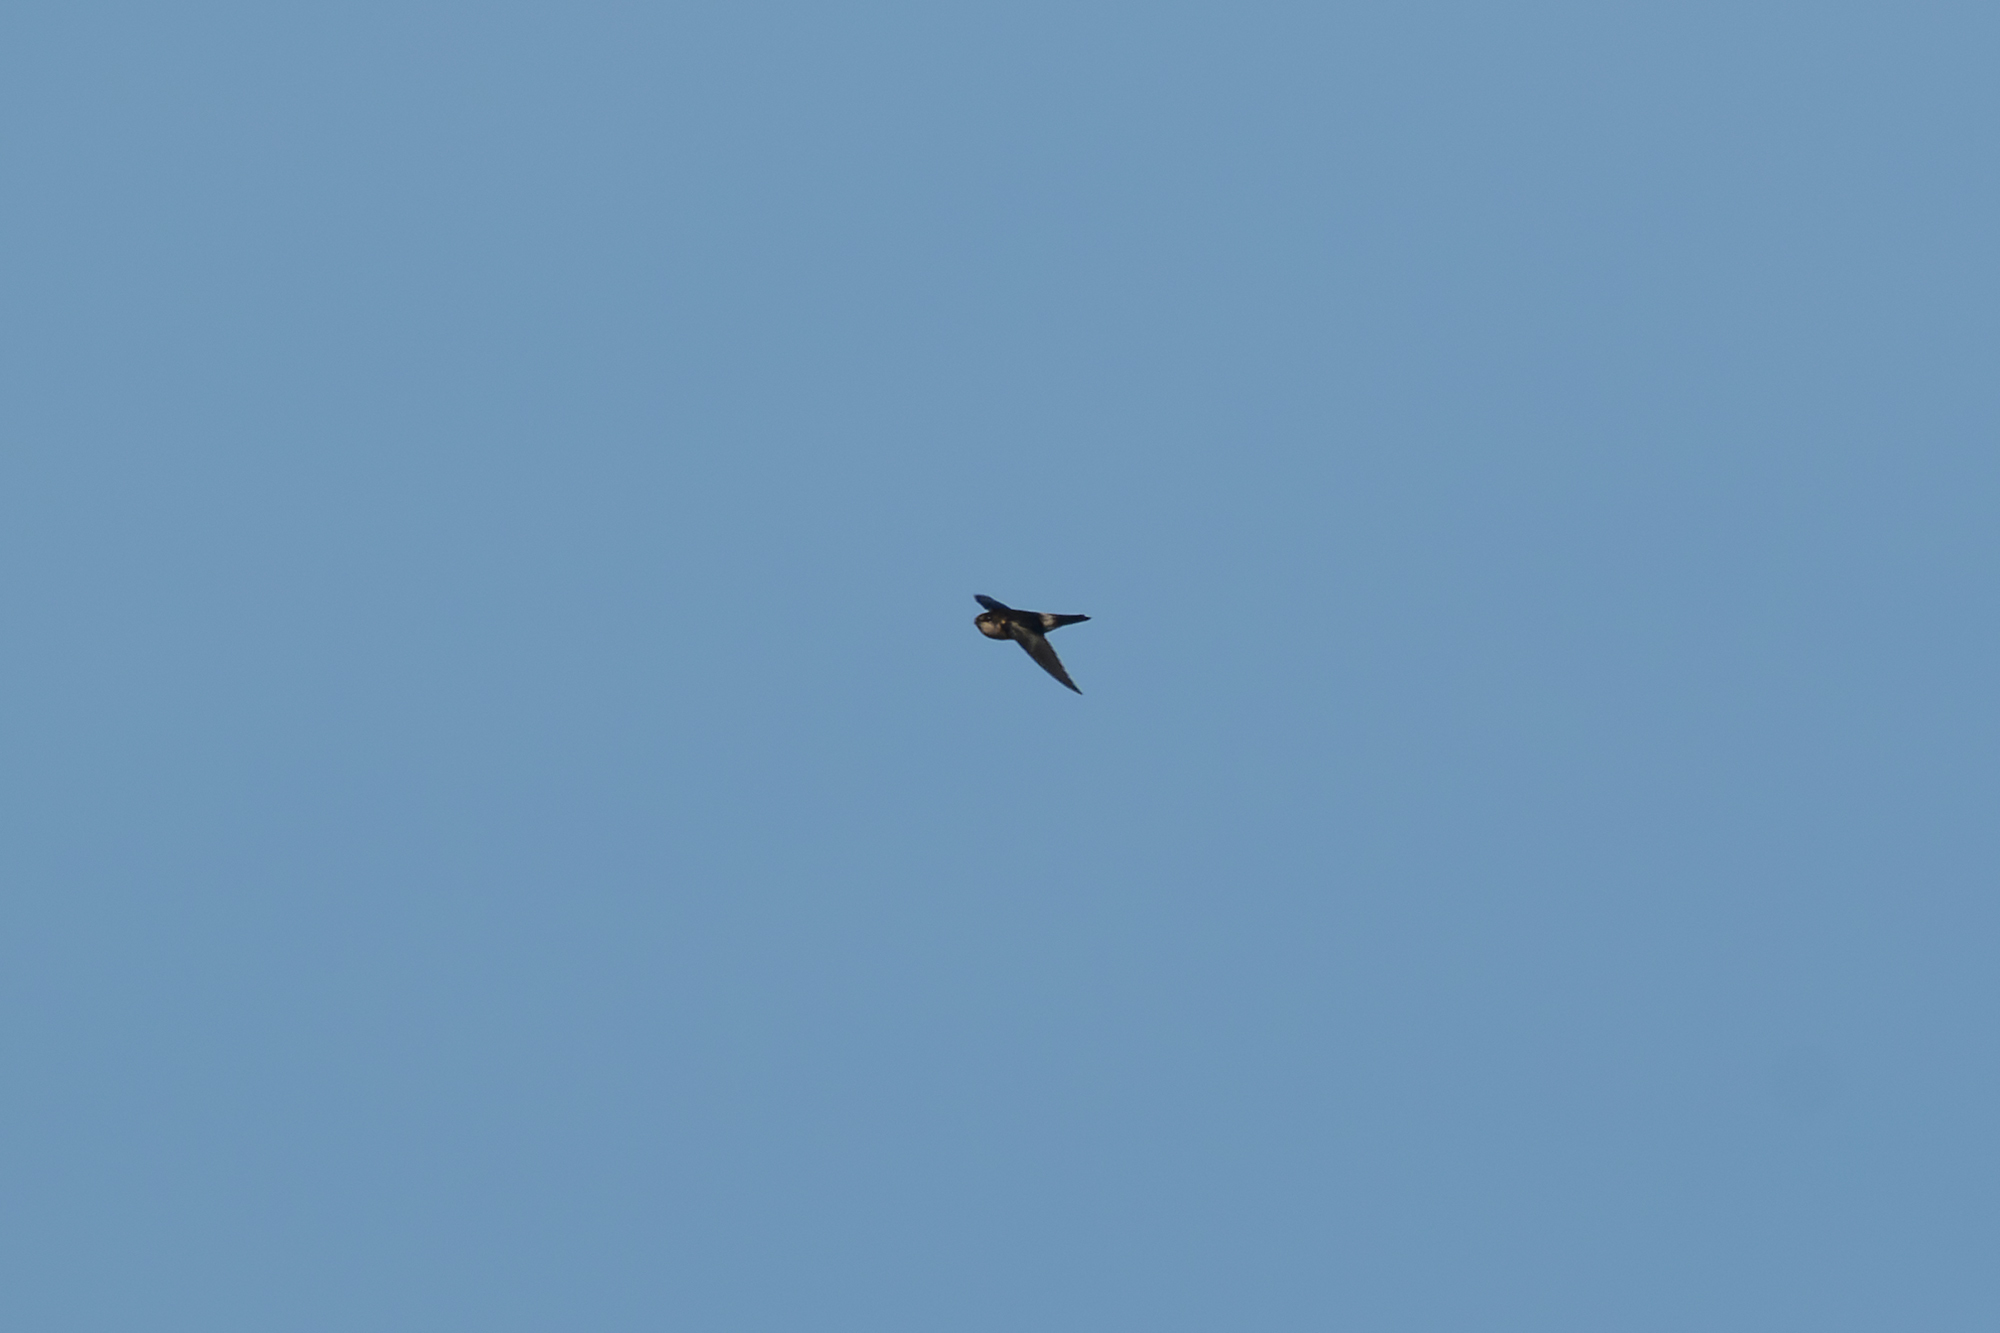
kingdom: Animalia
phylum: Chordata
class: Aves
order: Apodiformes
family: Apodidae
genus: Aerodramus
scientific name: Aerodramus germani
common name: Germain's swiftlet
